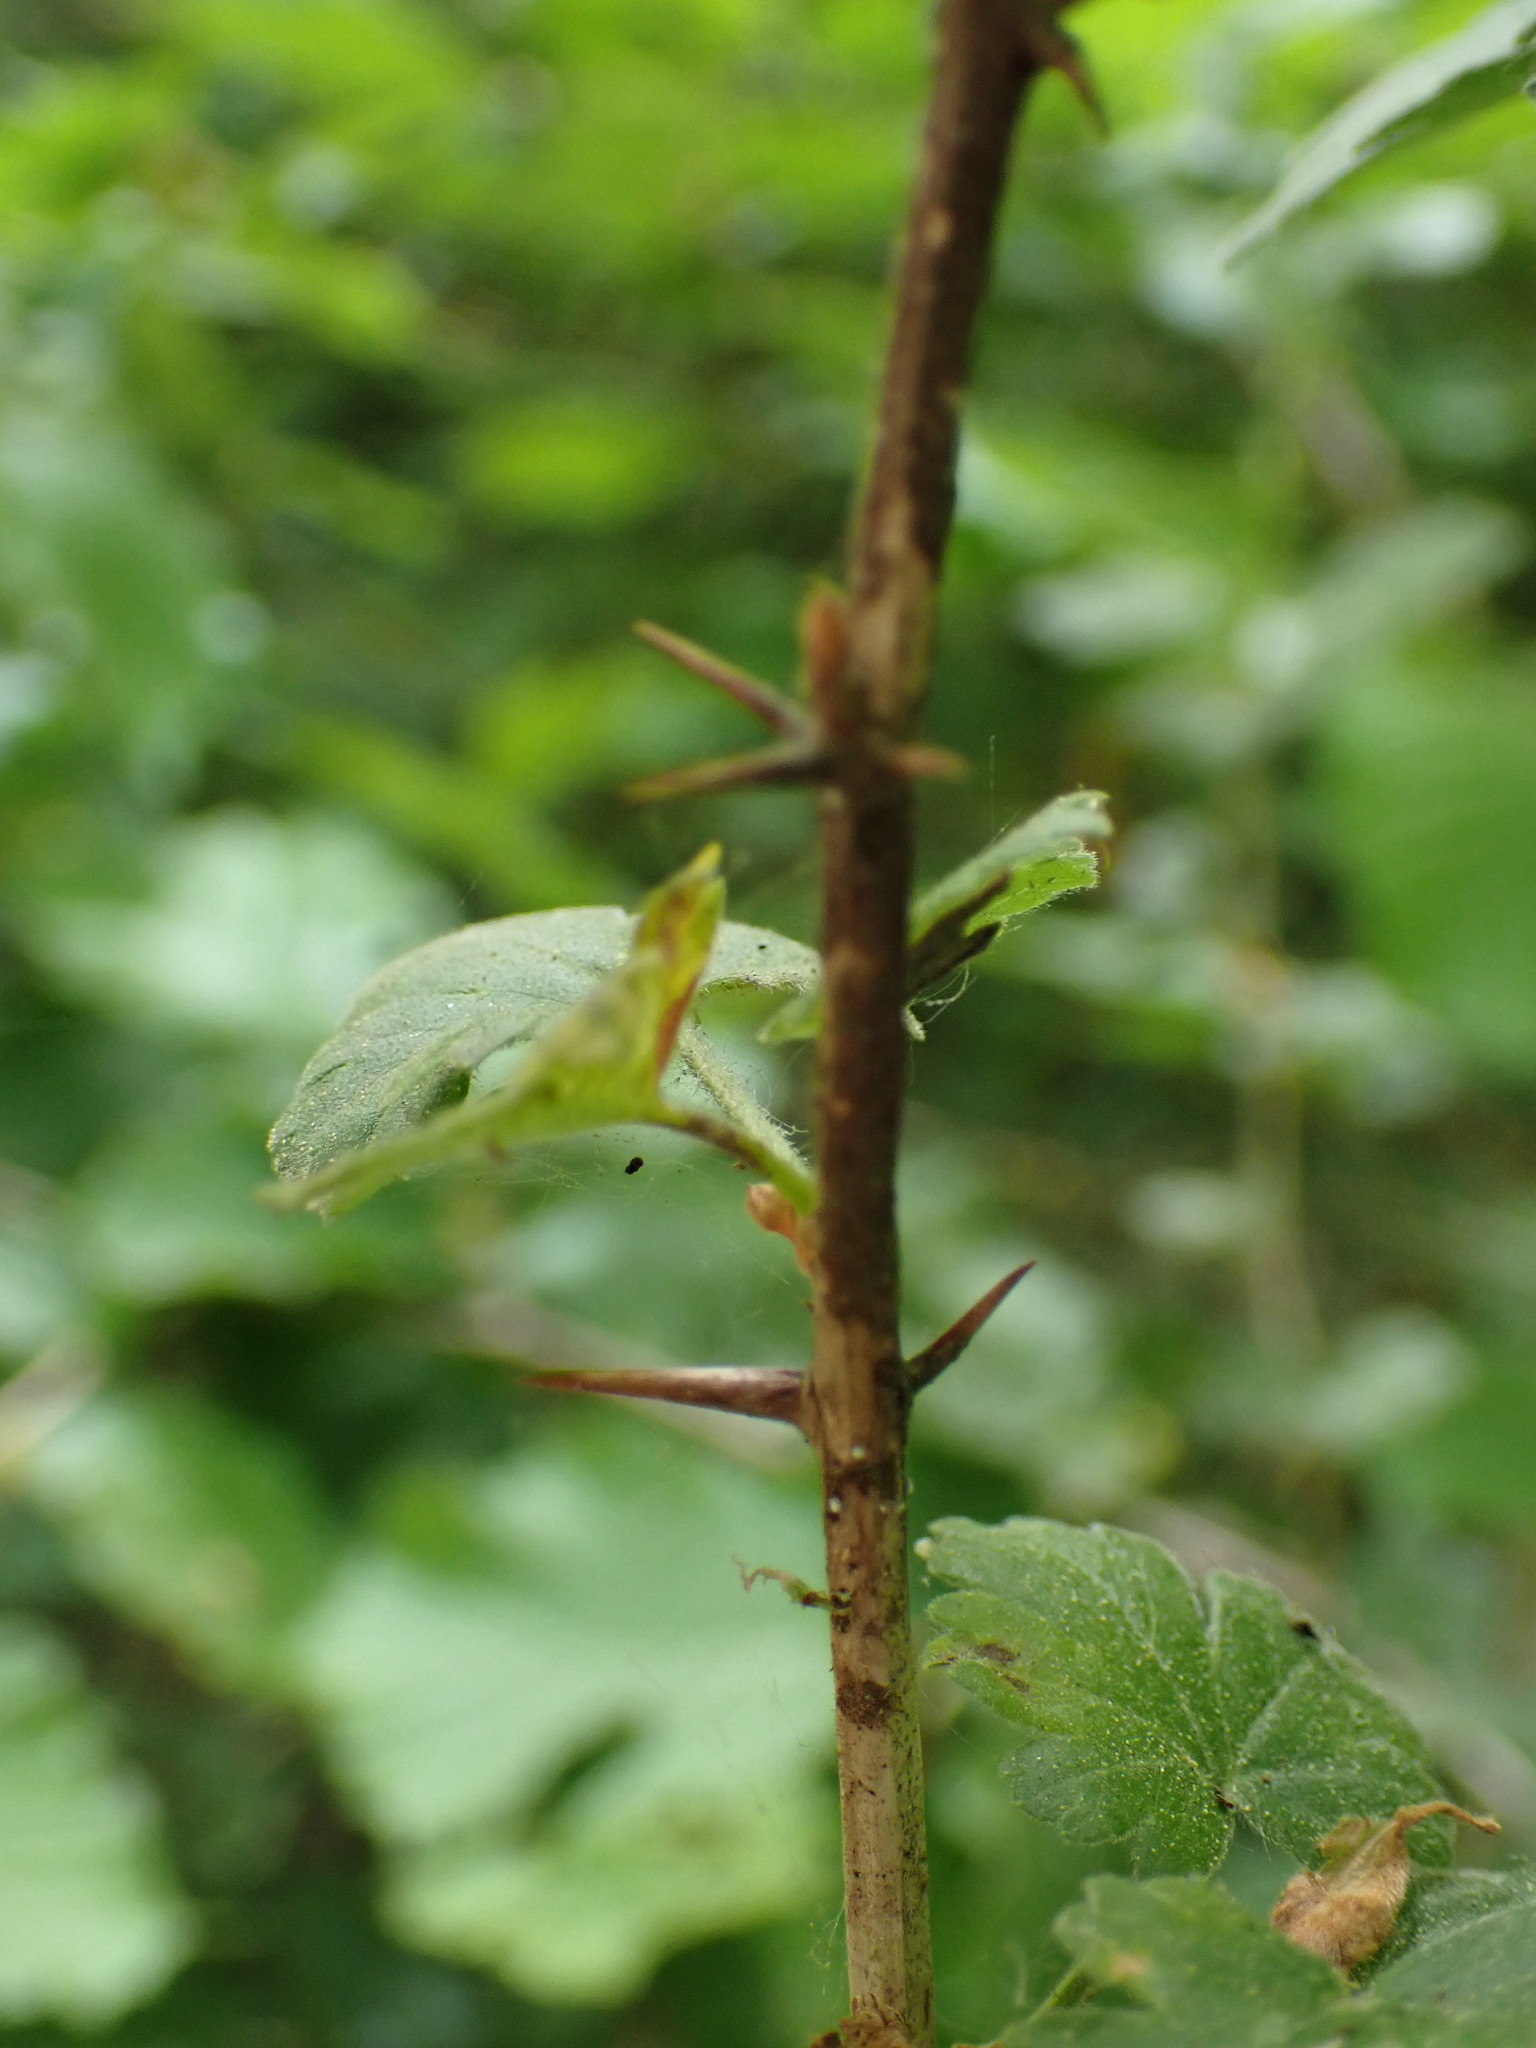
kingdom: Plantae
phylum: Tracheophyta
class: Magnoliopsida
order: Saxifragales
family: Grossulariaceae
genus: Ribes
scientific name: Ribes uva-crispa
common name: Gooseberry
